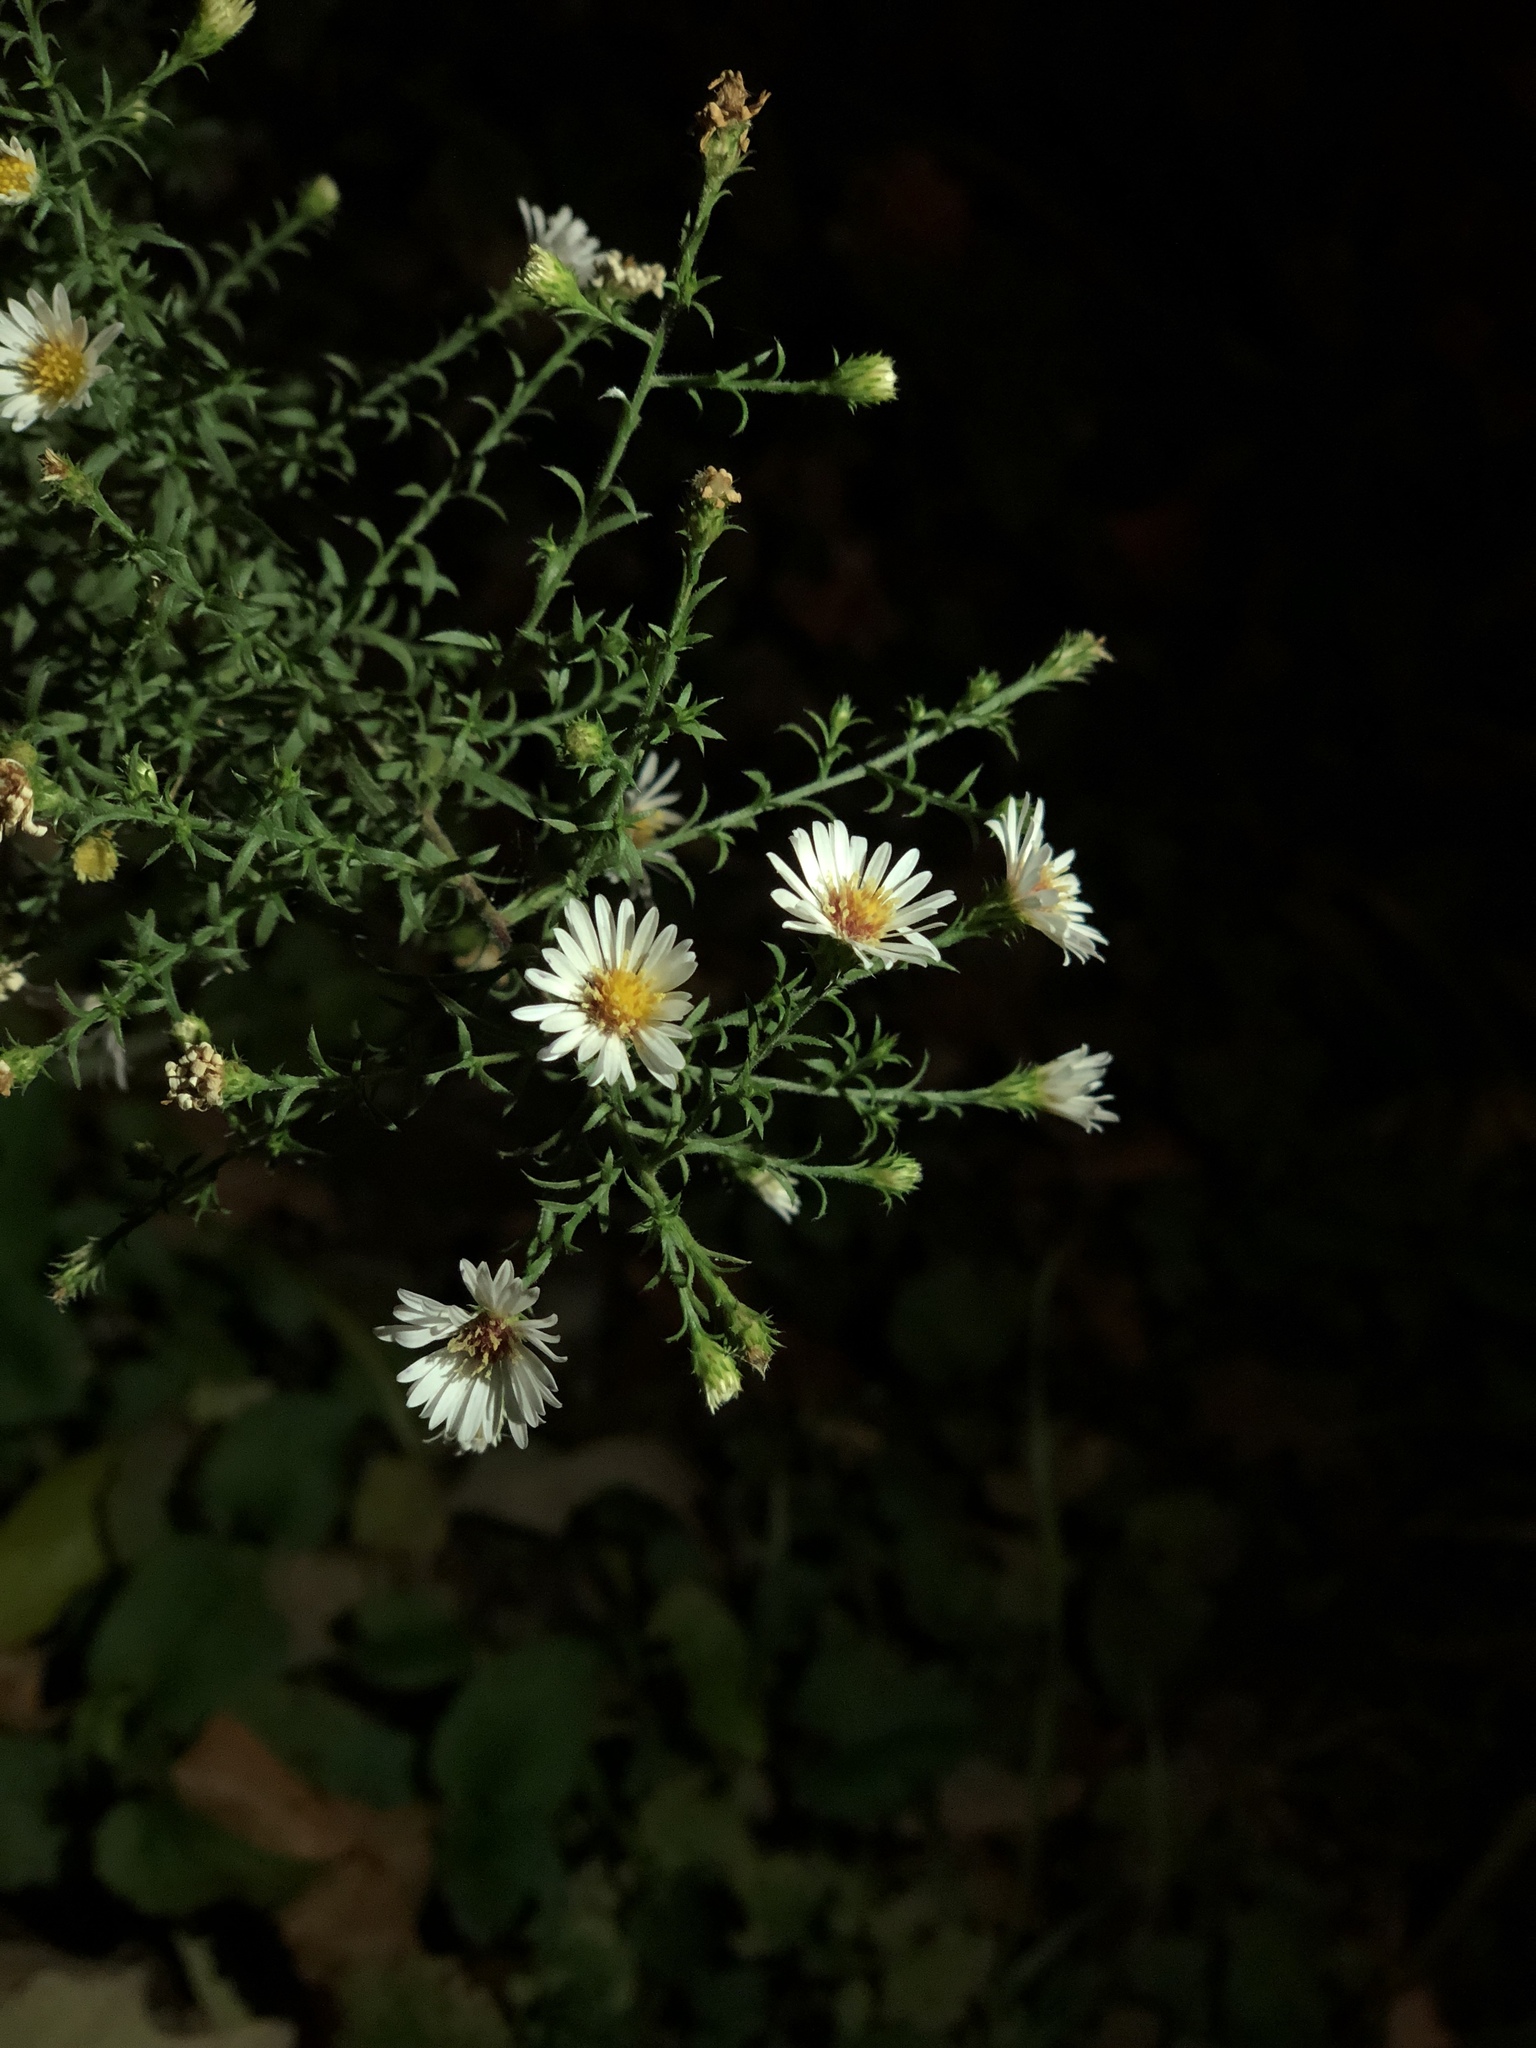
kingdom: Plantae
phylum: Tracheophyta
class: Magnoliopsida
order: Asterales
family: Asteraceae
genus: Symphyotrichum
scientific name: Symphyotrichum lateriflorum
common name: Calico aster
